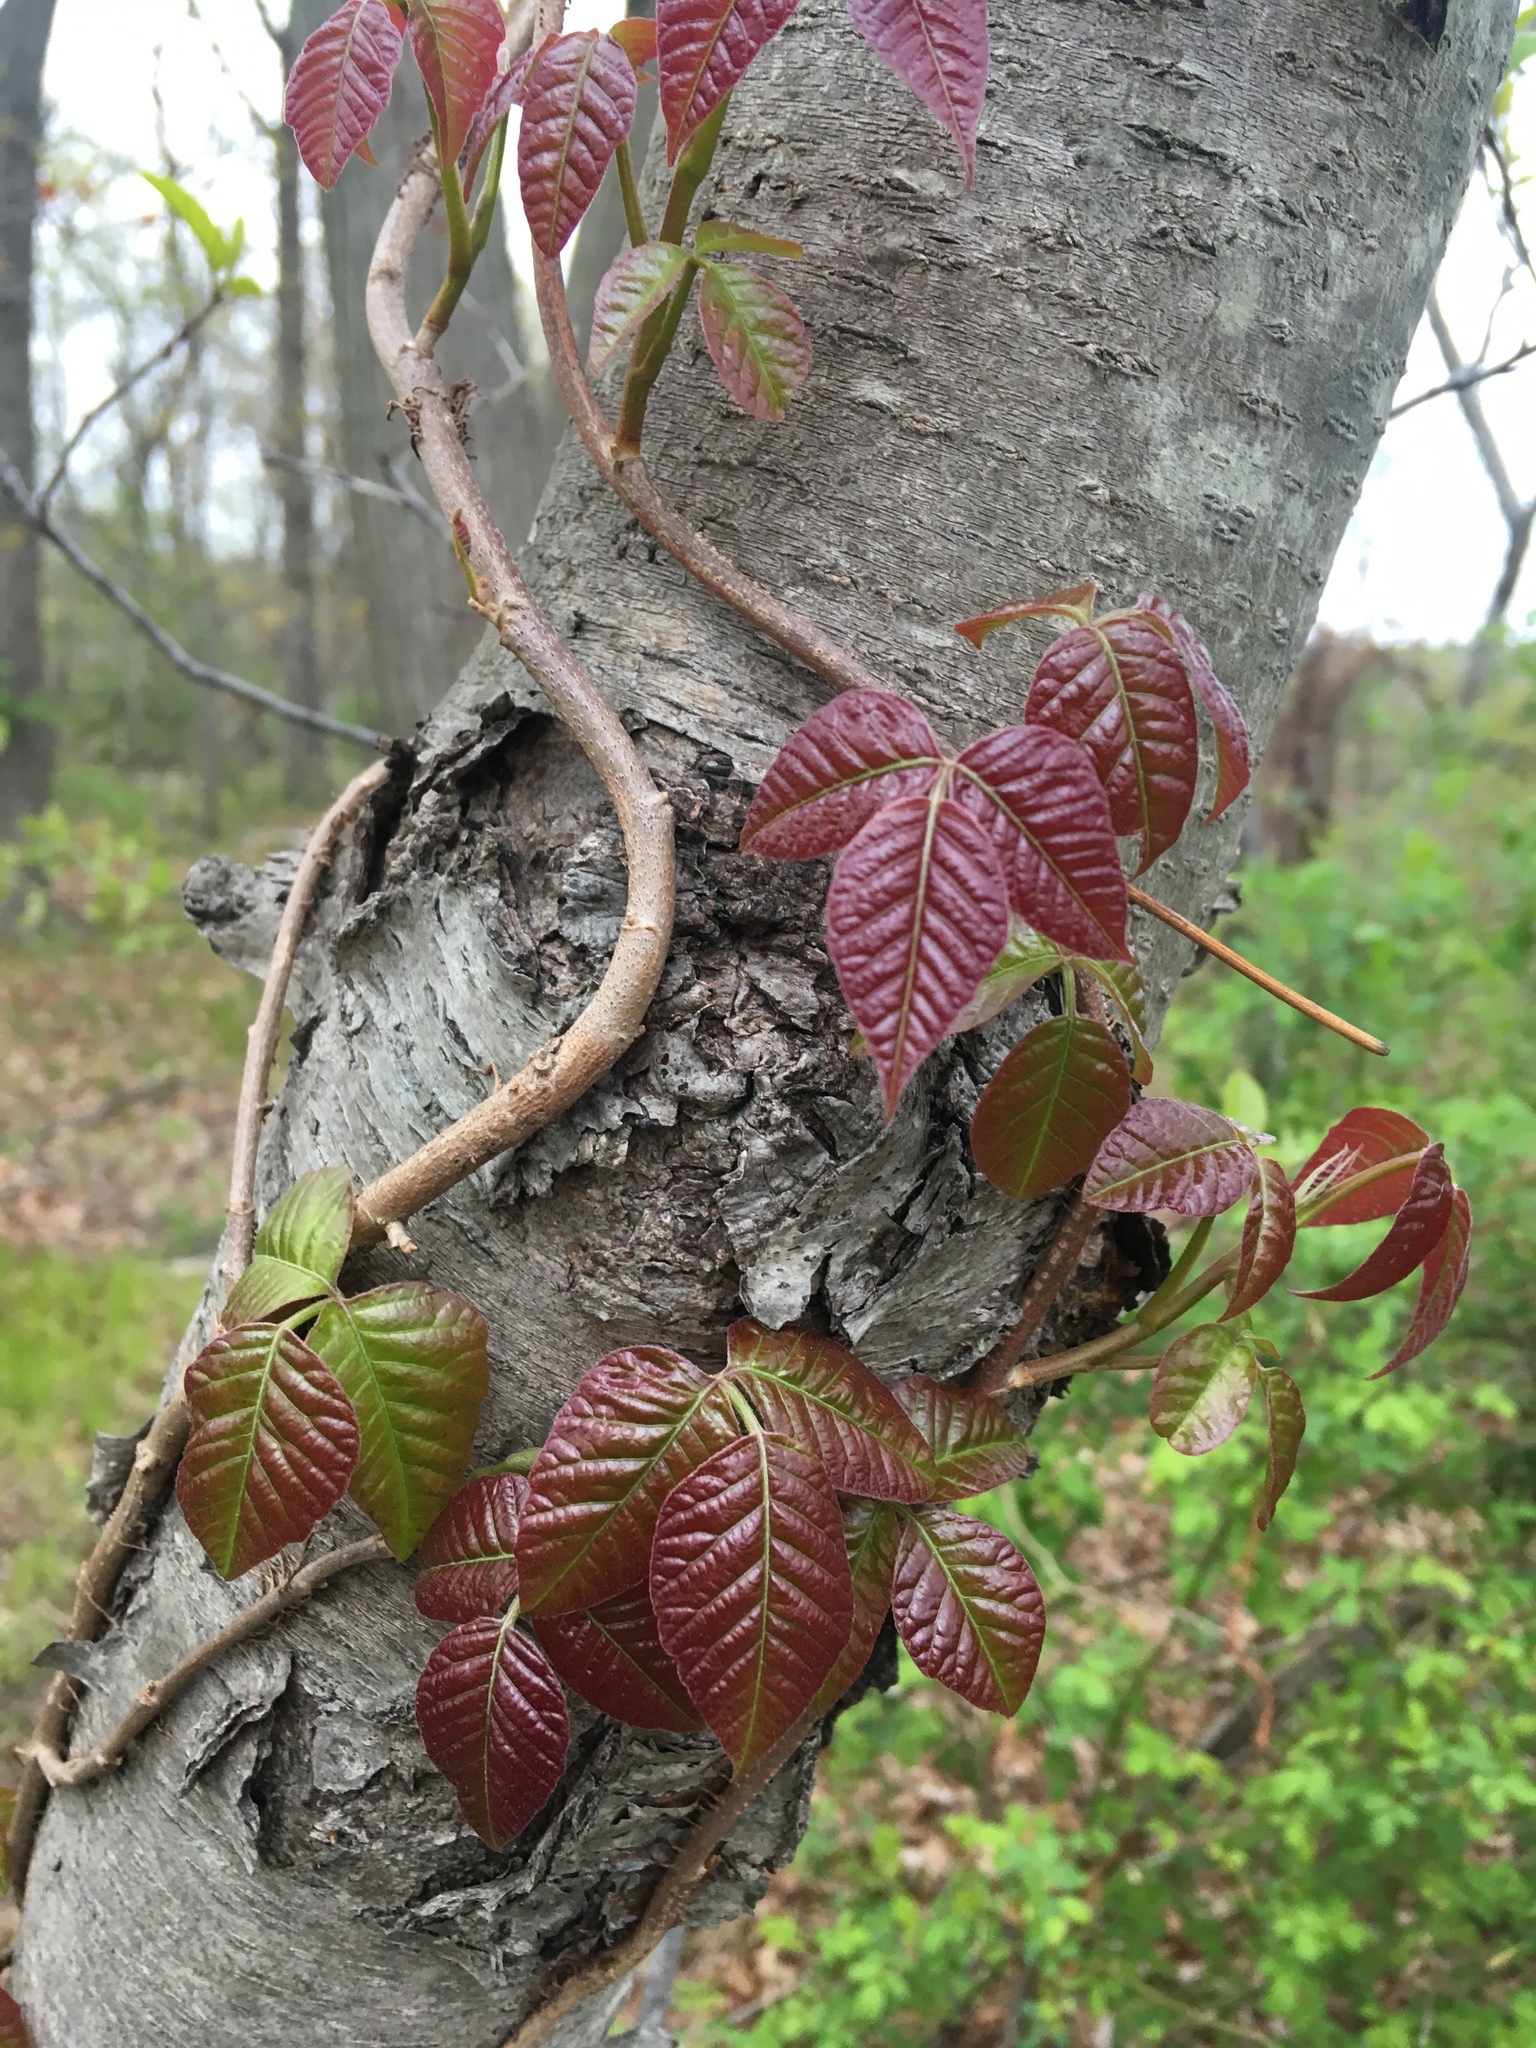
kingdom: Plantae
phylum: Tracheophyta
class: Magnoliopsida
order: Sapindales
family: Anacardiaceae
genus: Toxicodendron
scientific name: Toxicodendron radicans
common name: Poison ivy
